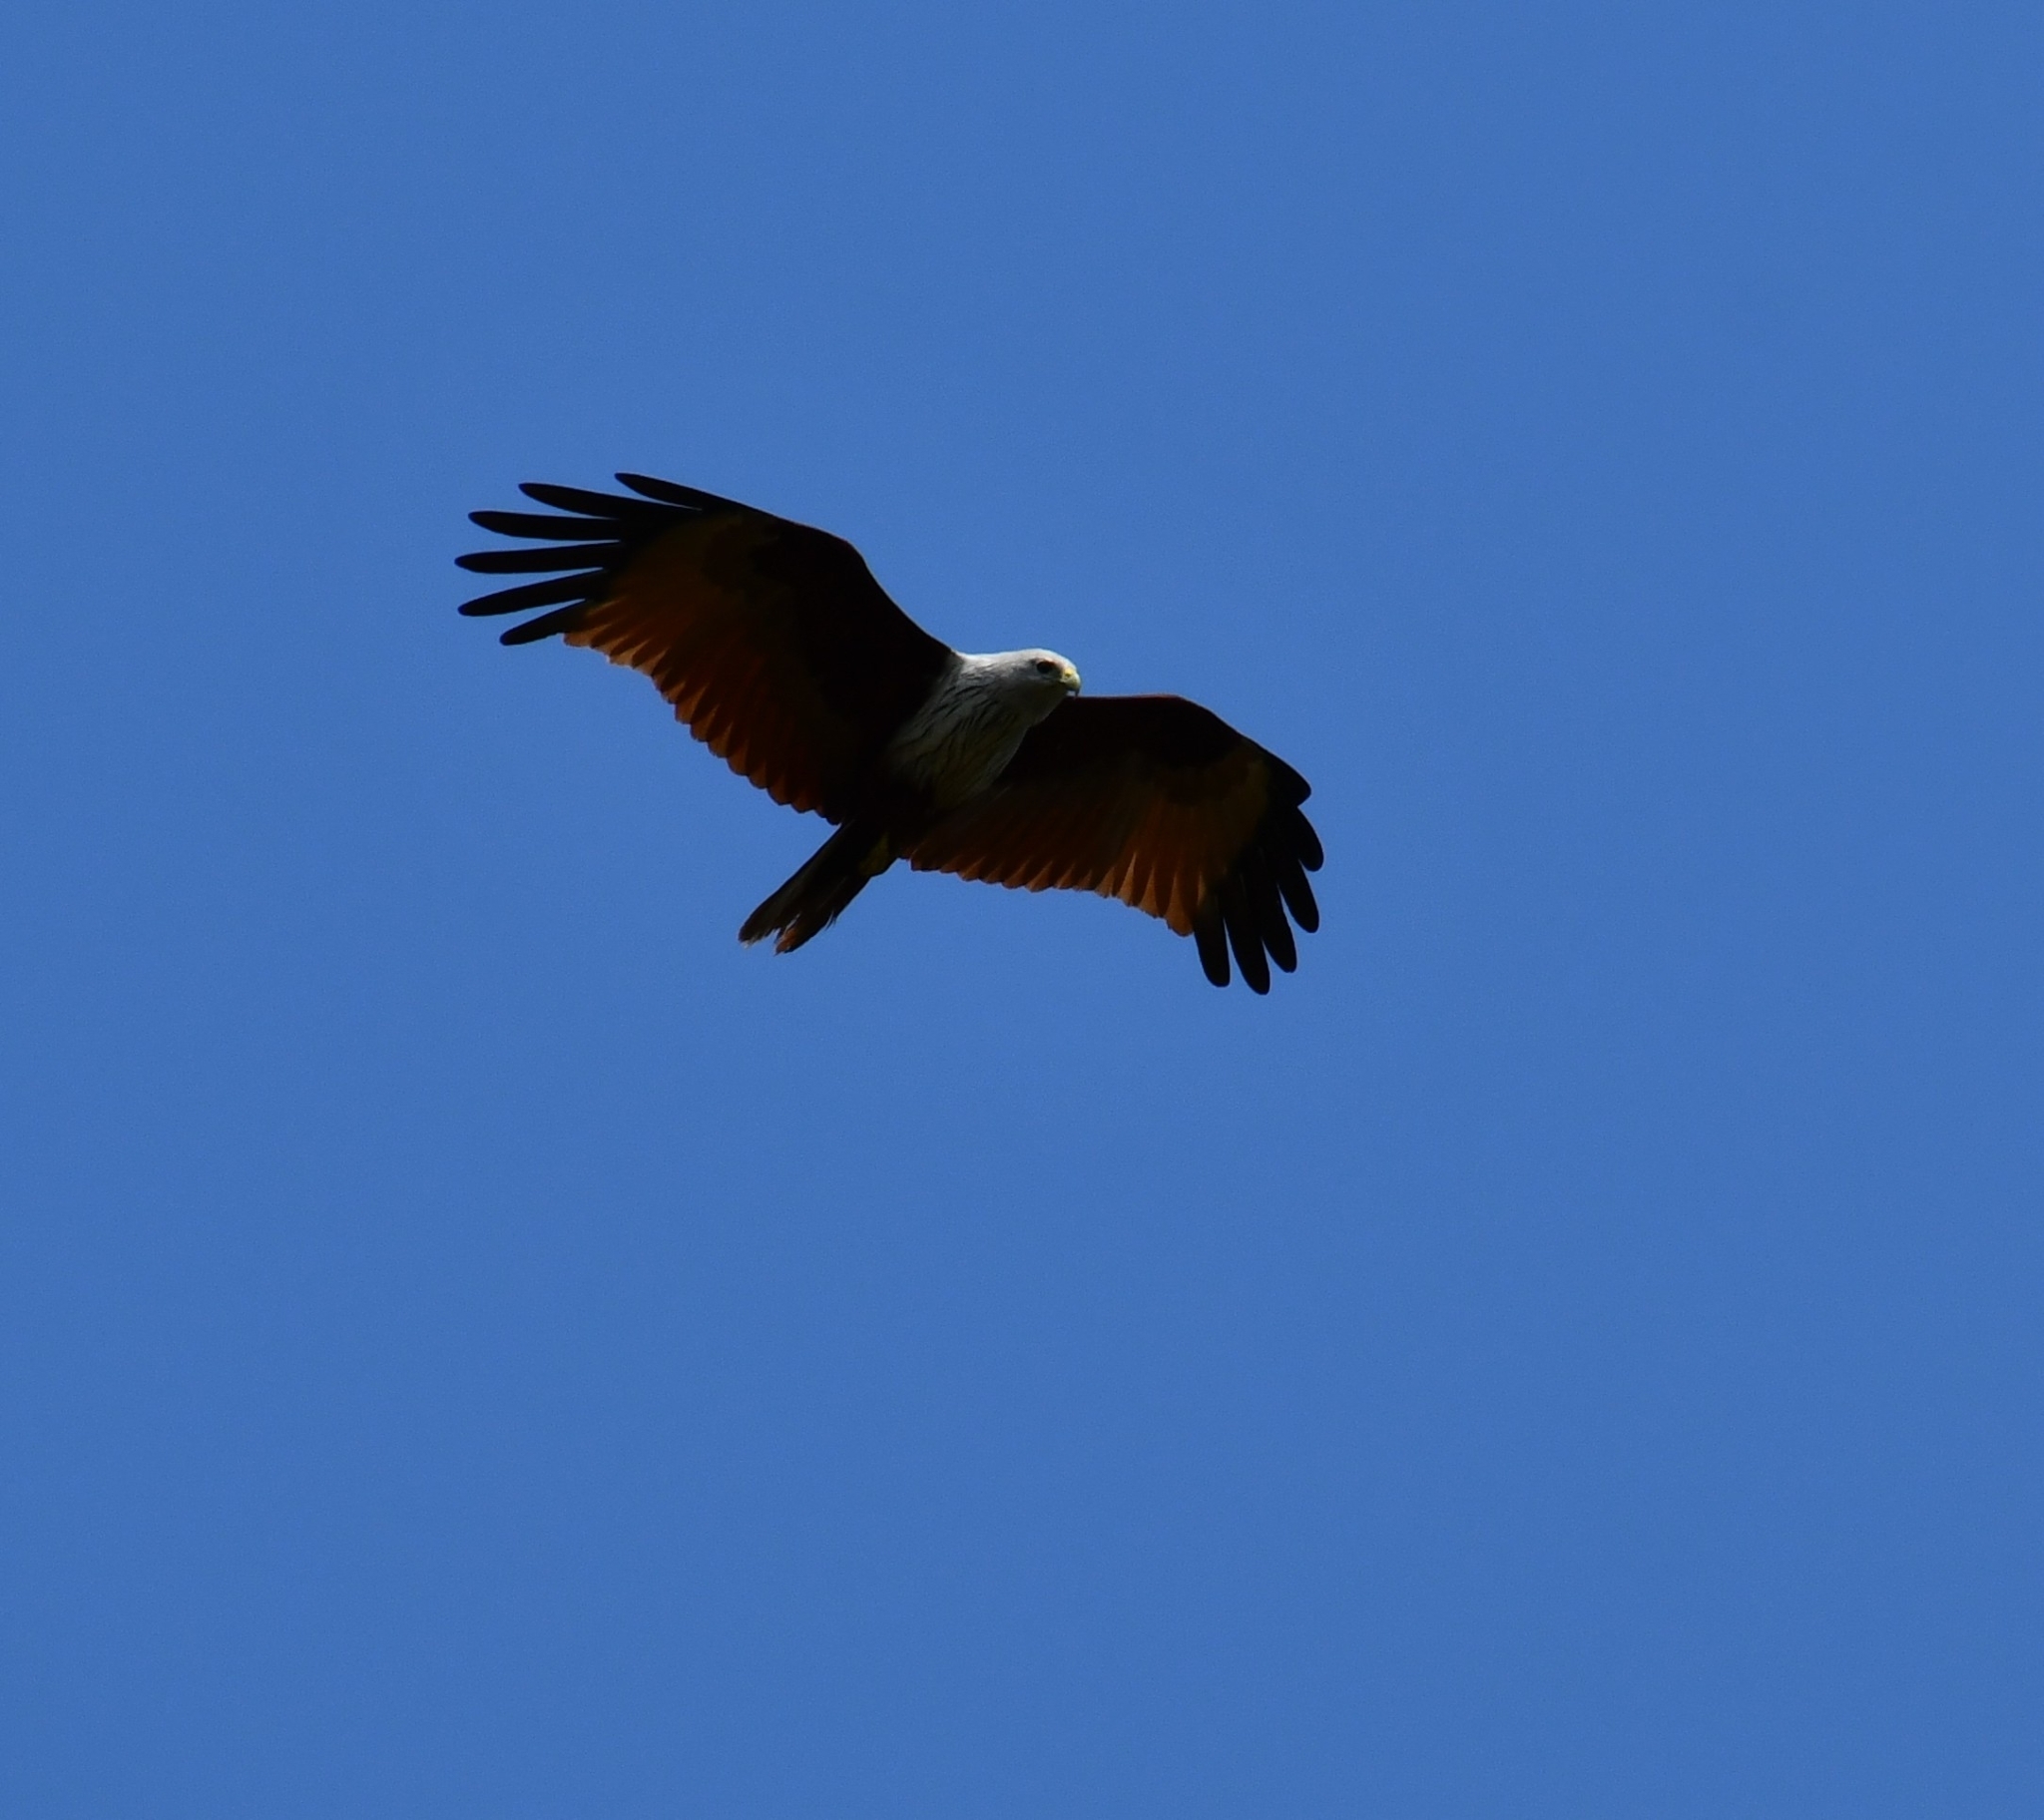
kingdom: Animalia
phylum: Chordata
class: Aves
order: Accipitriformes
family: Accipitridae
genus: Haliastur
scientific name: Haliastur indus
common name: Brahminy kite
